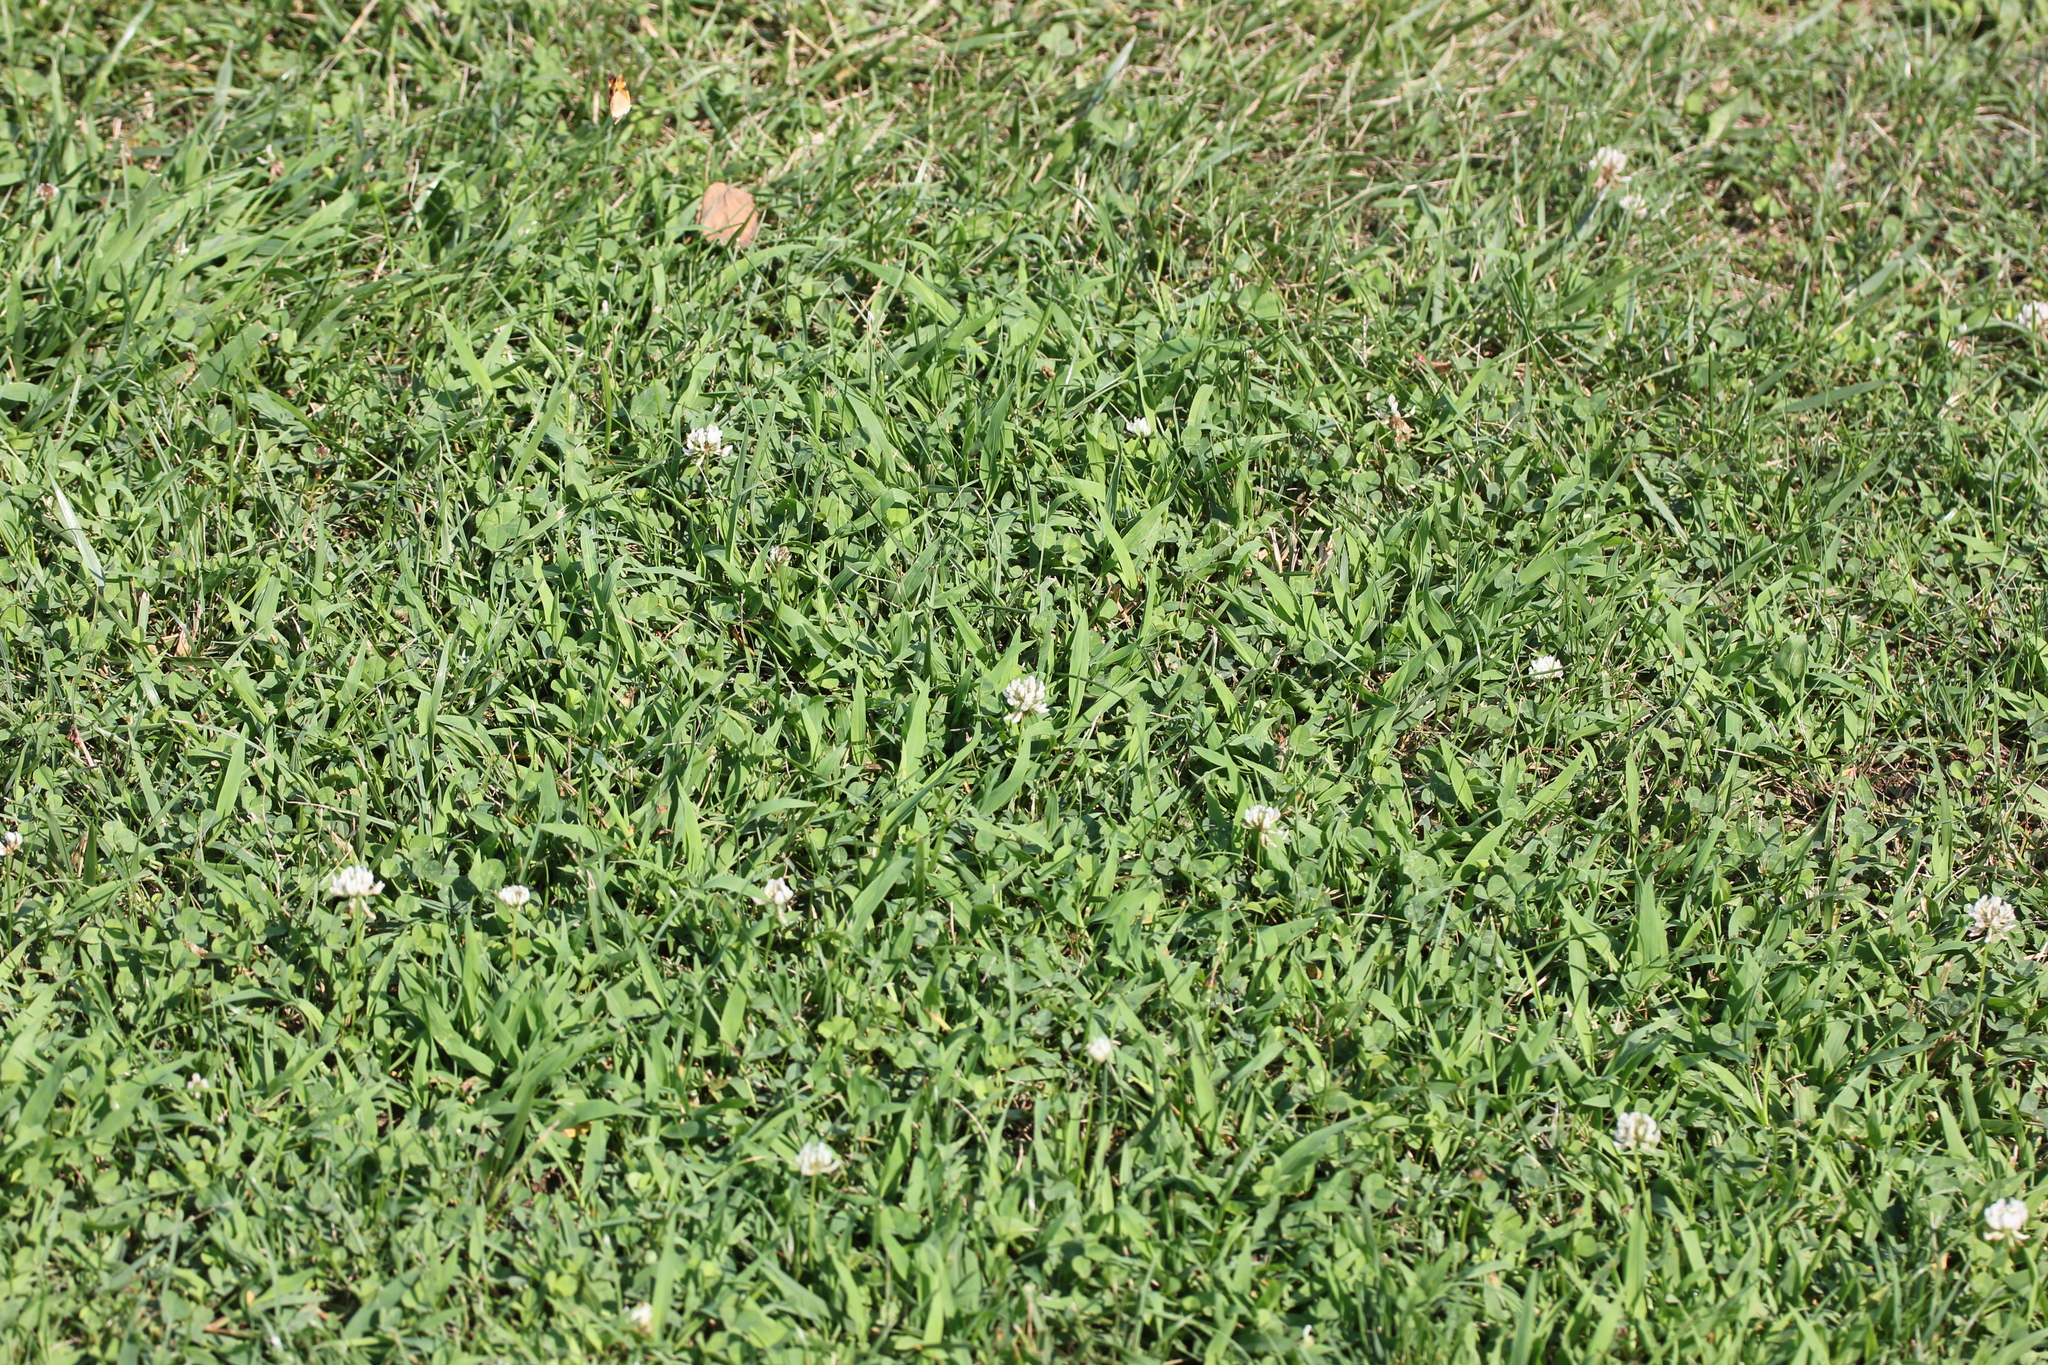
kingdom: Plantae
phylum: Tracheophyta
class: Magnoliopsida
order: Fabales
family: Fabaceae
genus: Trifolium
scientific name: Trifolium repens
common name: White clover
